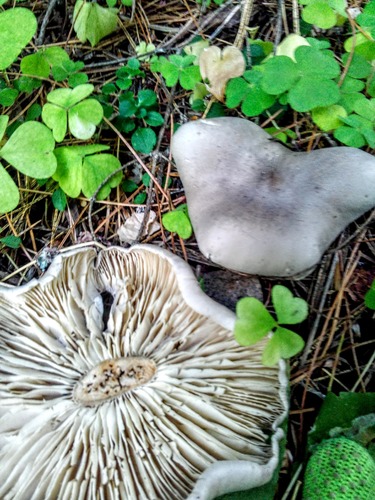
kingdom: Fungi
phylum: Basidiomycota
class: Agaricomycetes
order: Agaricales
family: Tricholomataceae
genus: Clitocybe
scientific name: Clitocybe nebularis
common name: Clouded agaric
